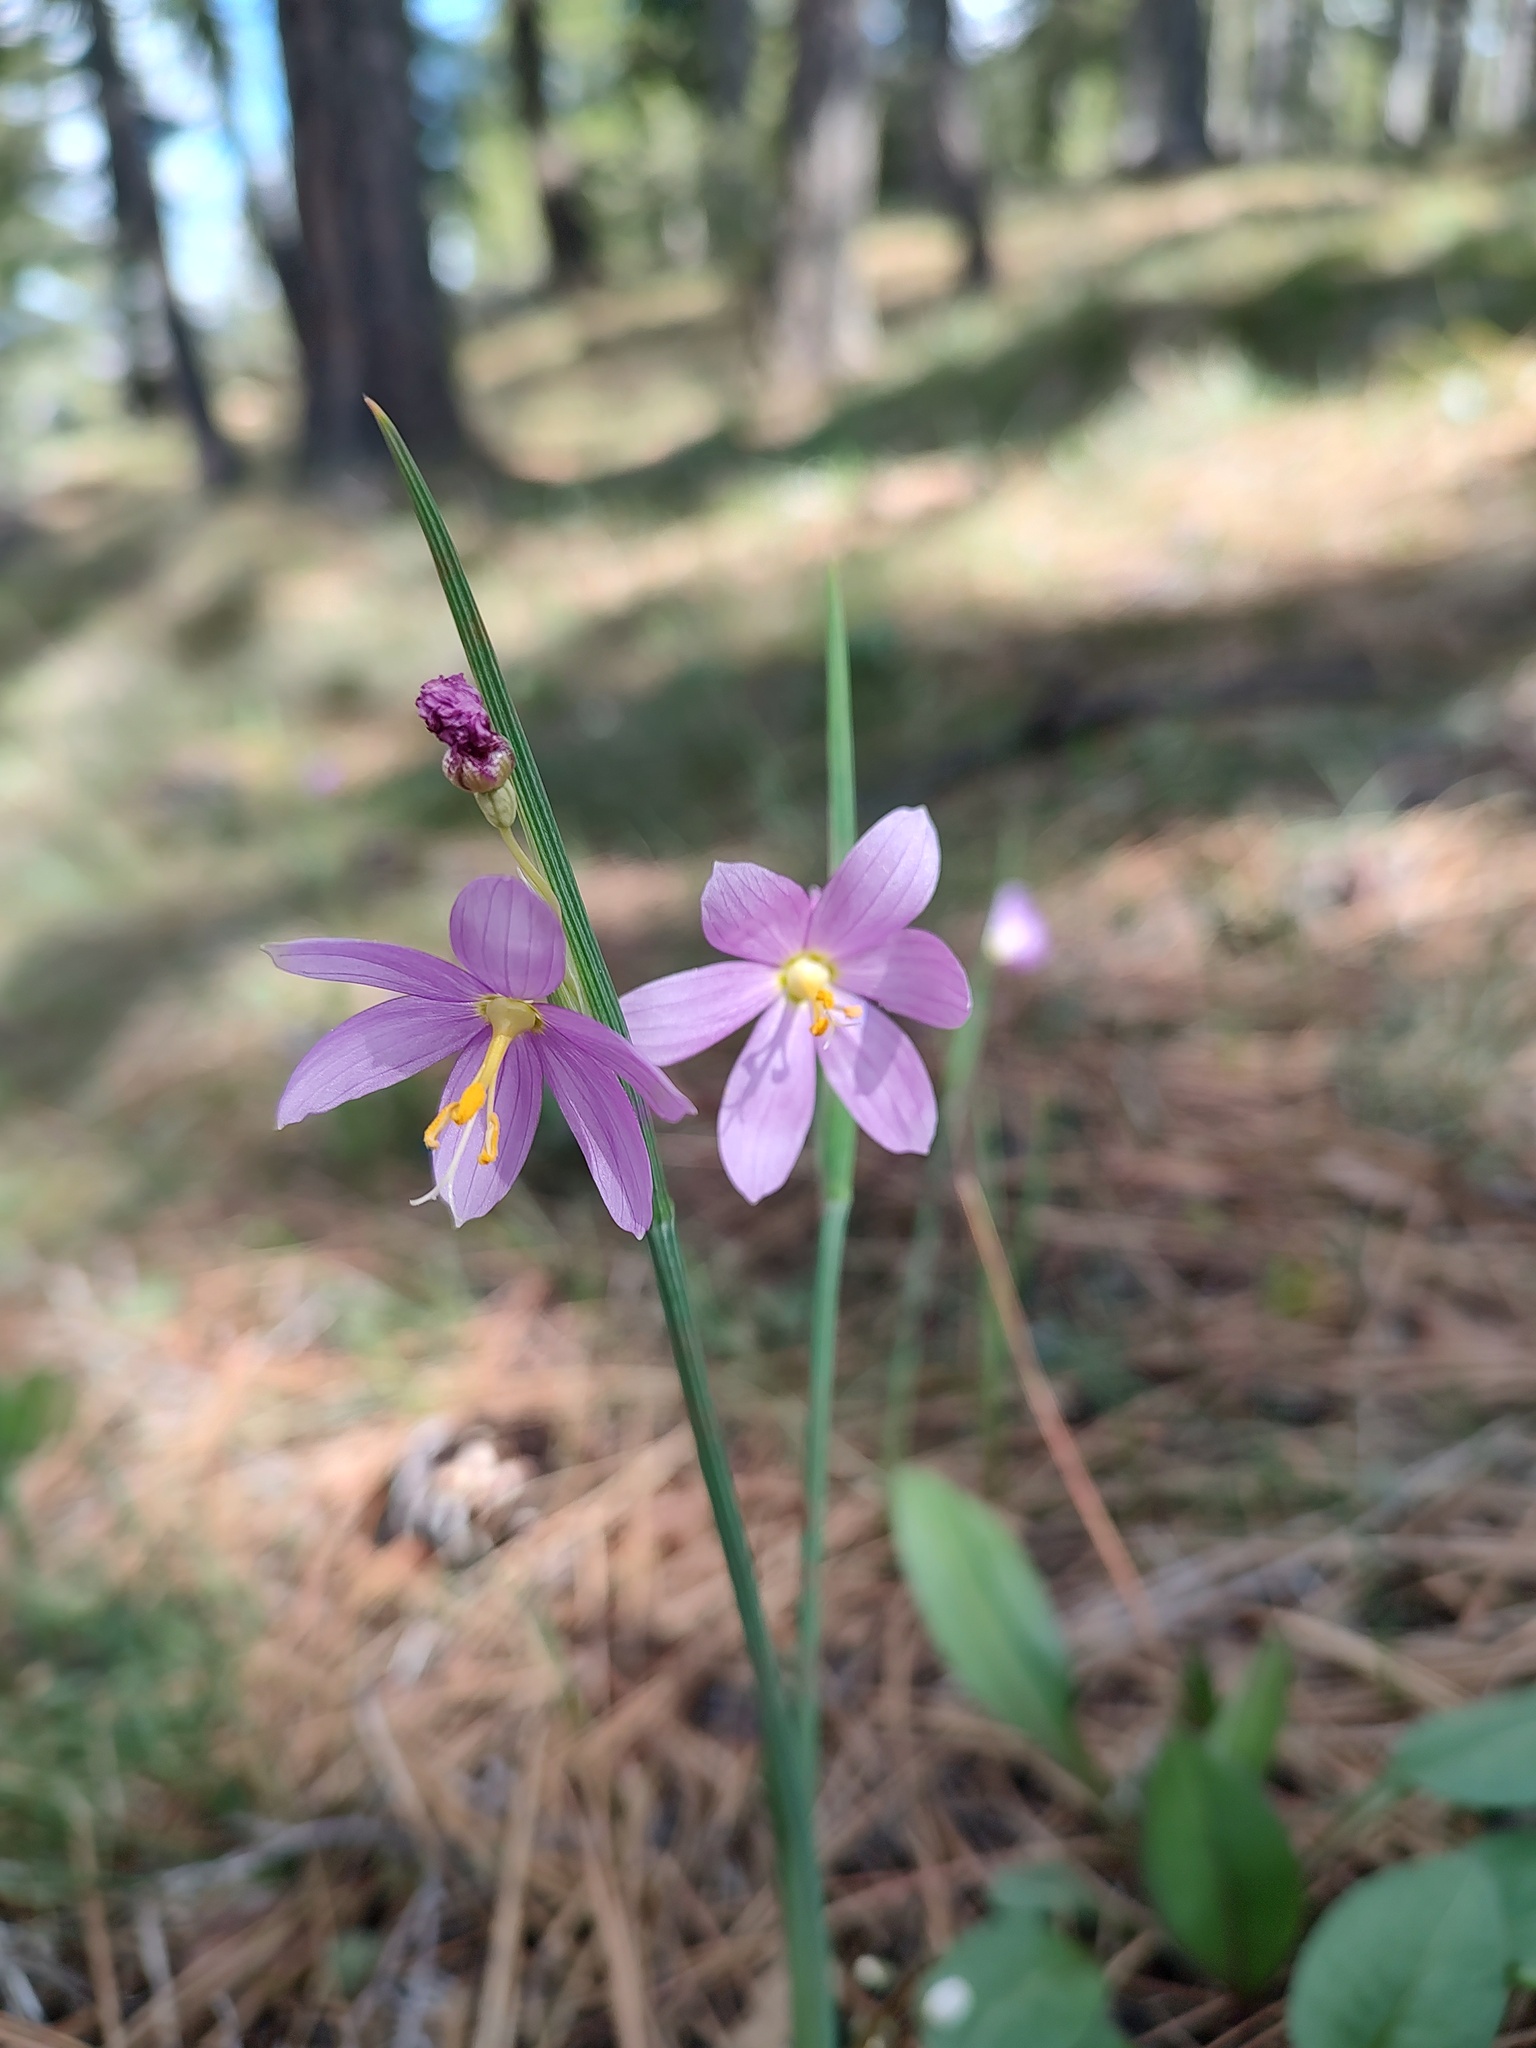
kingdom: Plantae
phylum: Tracheophyta
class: Liliopsida
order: Asparagales
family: Iridaceae
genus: Olsynium
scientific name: Olsynium douglasii
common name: Douglas' grasswidow
